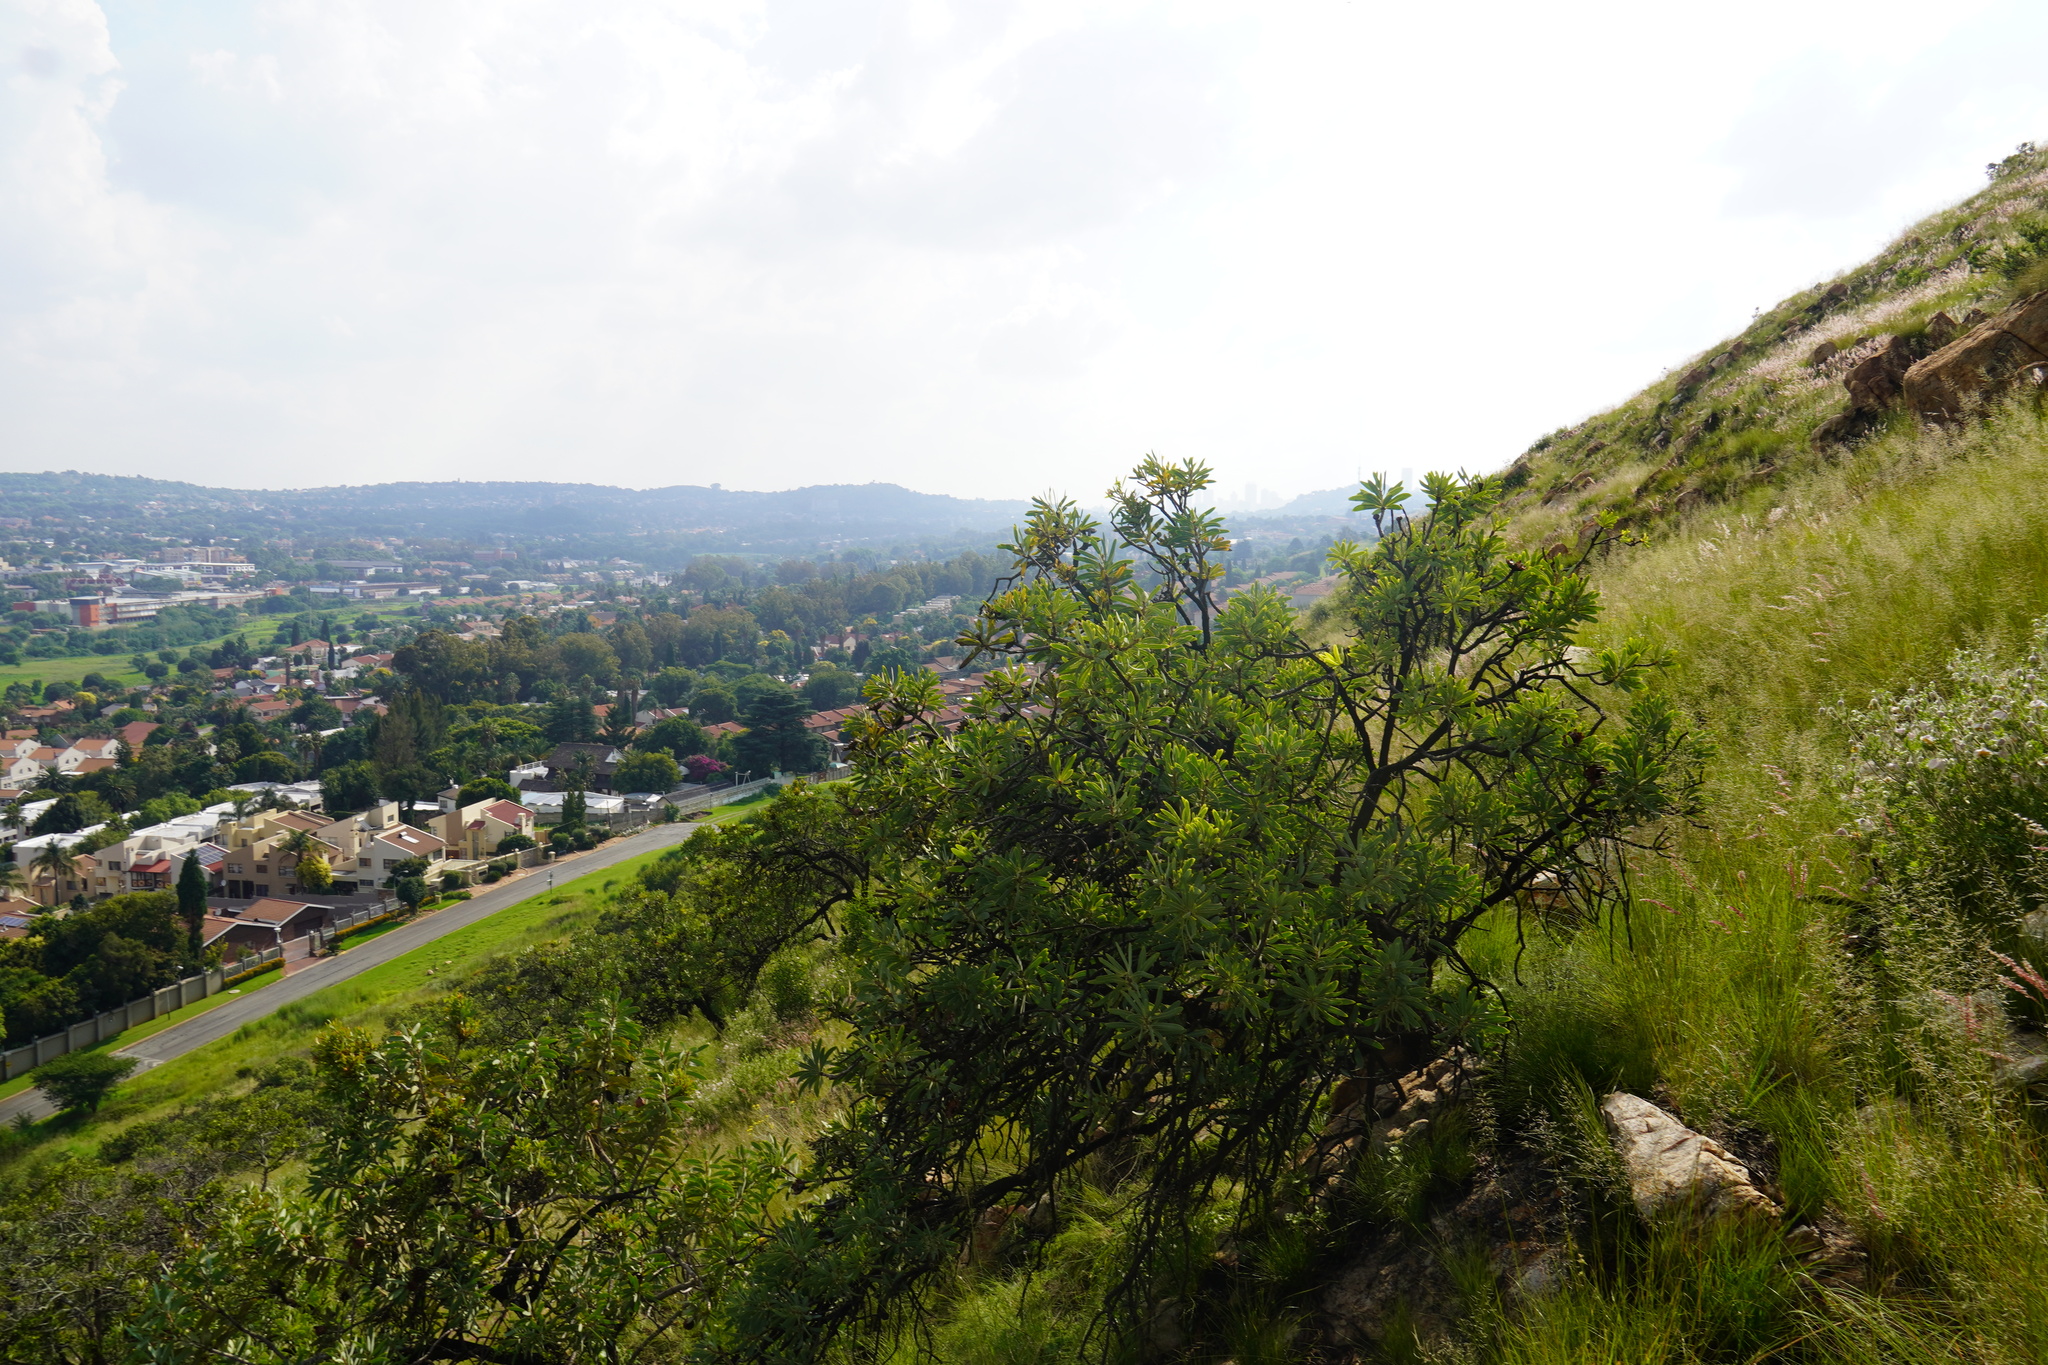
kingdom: Plantae
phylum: Tracheophyta
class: Magnoliopsida
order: Proteales
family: Proteaceae
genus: Protea
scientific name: Protea caffra
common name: Common sugarbush
